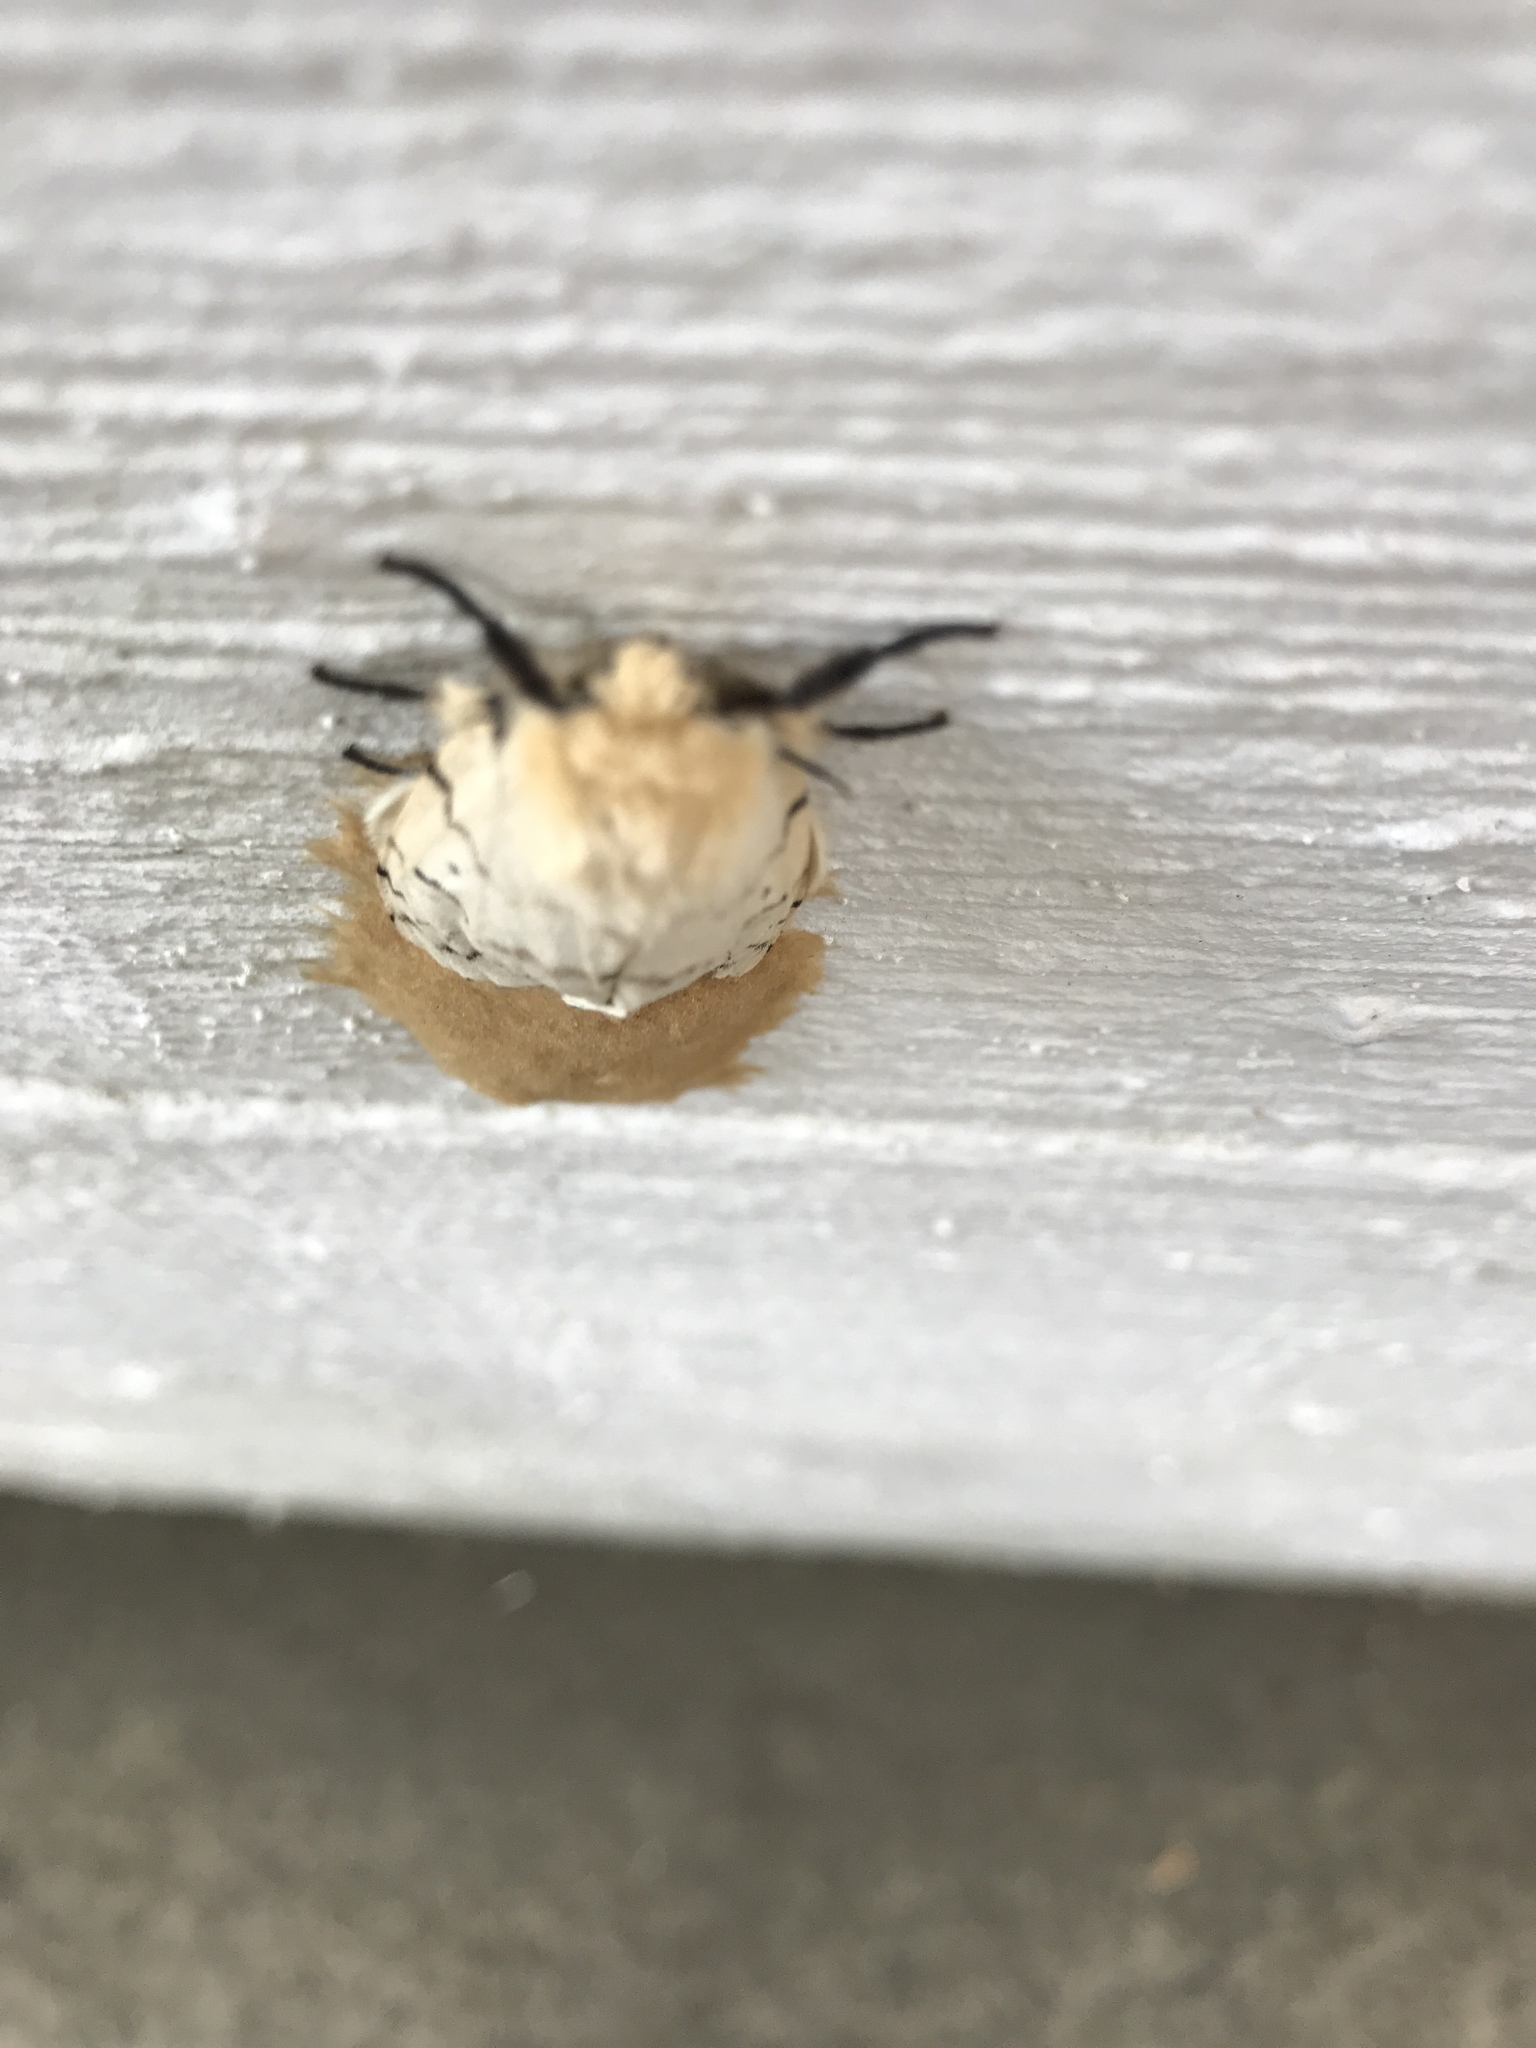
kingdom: Animalia
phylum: Arthropoda
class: Insecta
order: Lepidoptera
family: Erebidae
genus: Lymantria
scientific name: Lymantria dispar
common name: Gypsy moth
